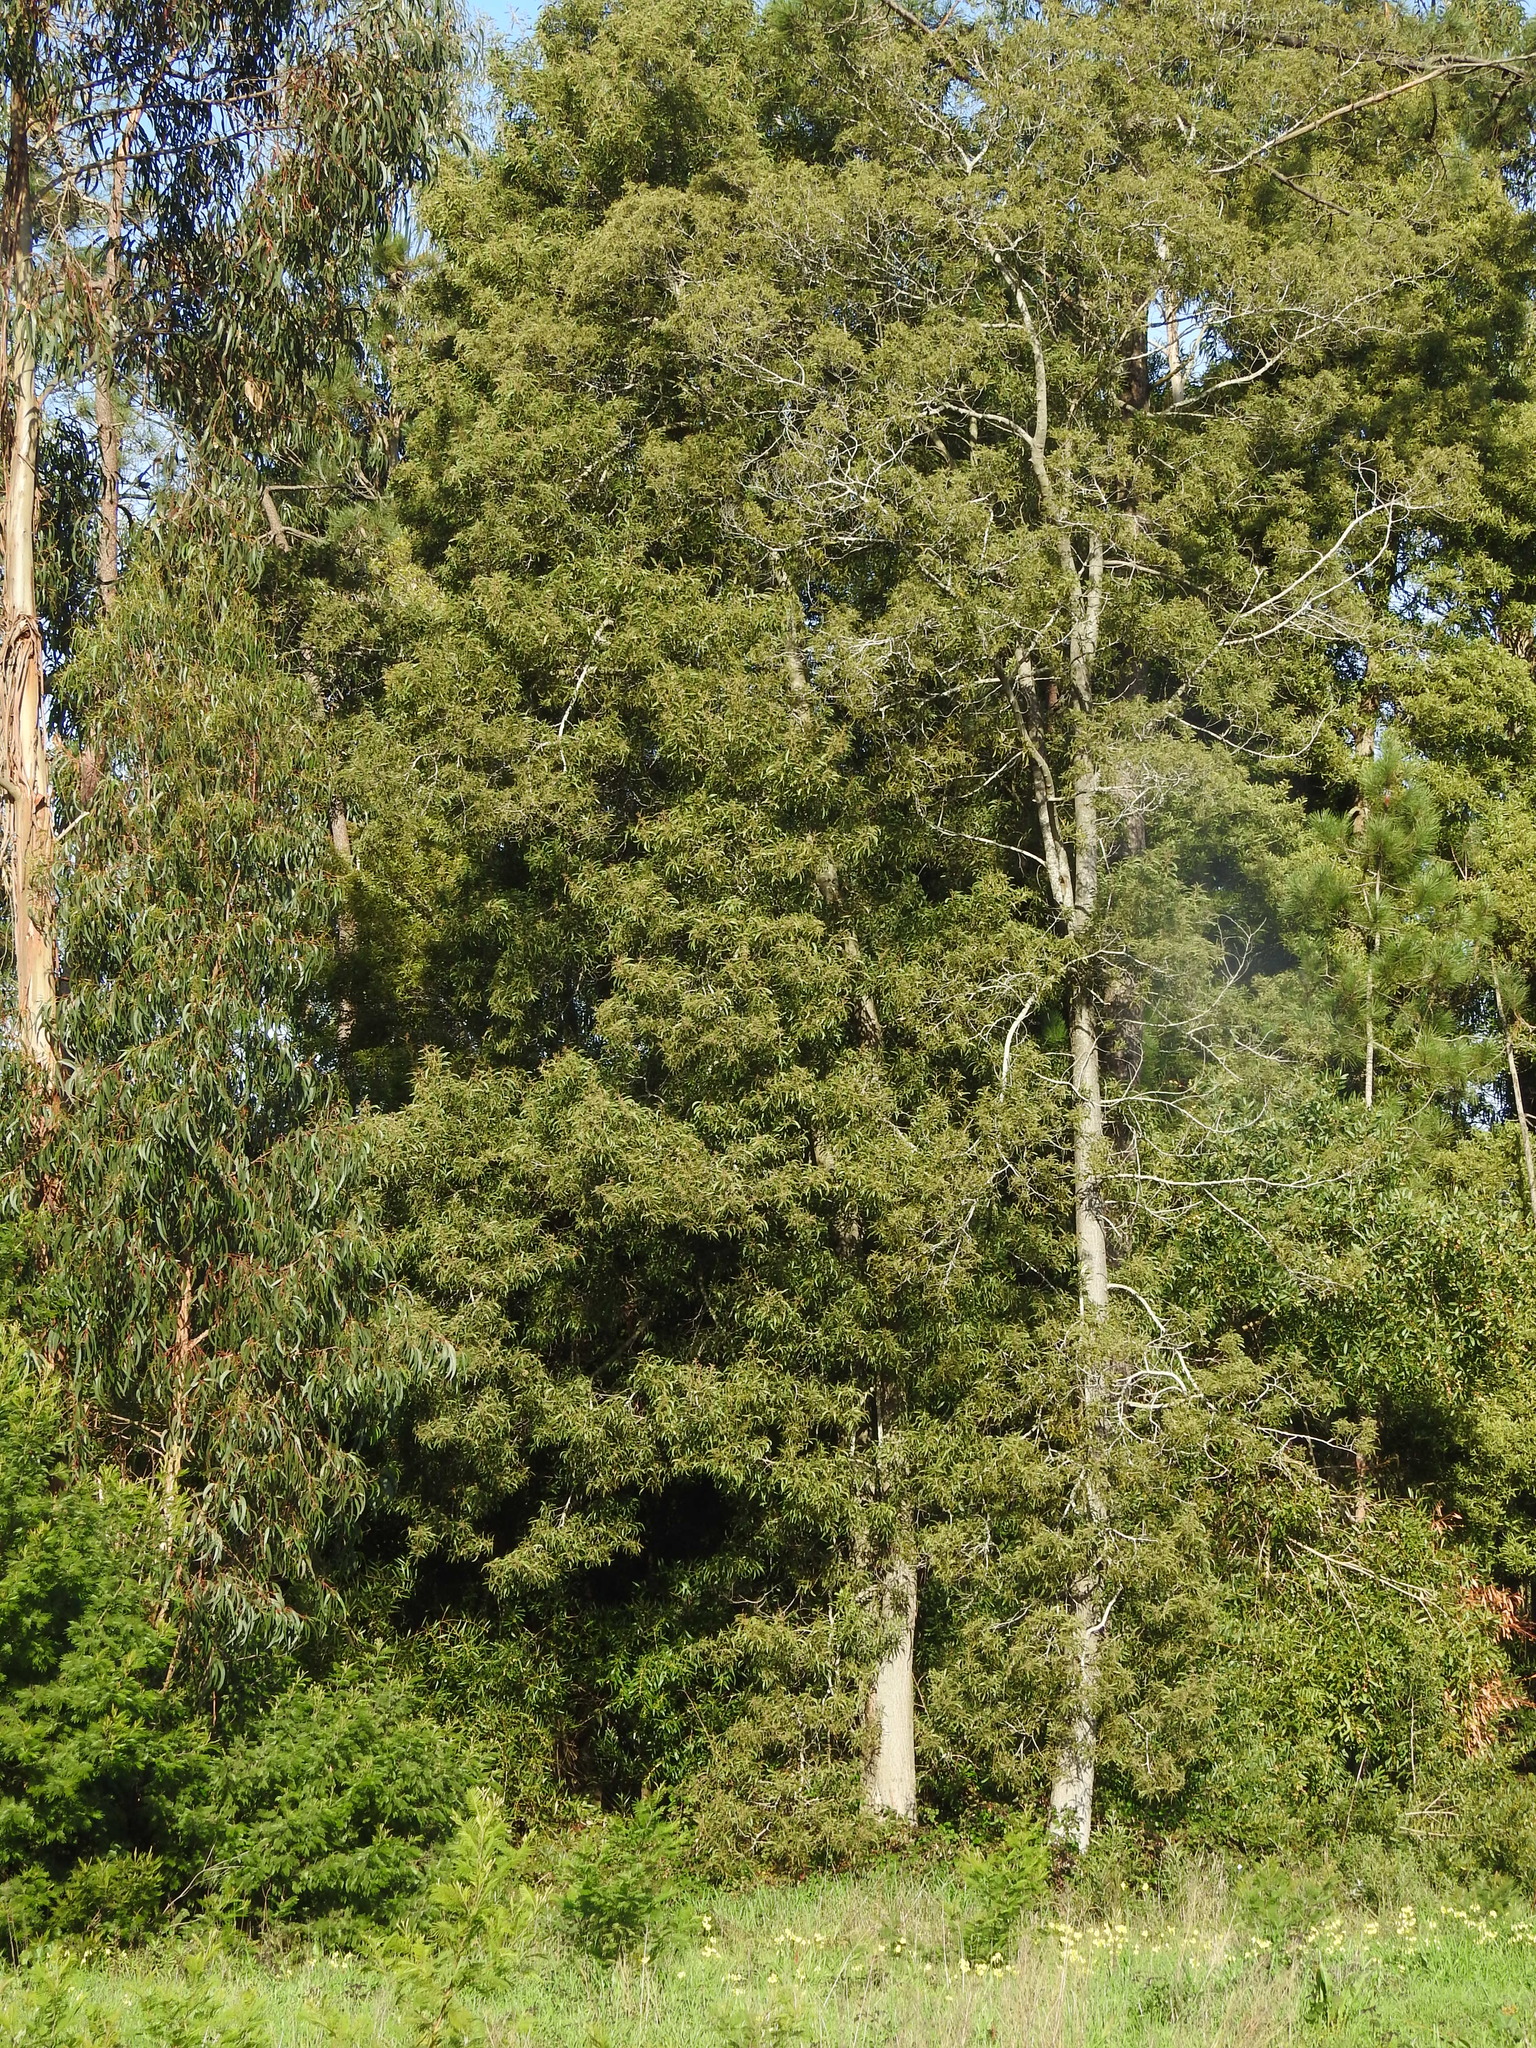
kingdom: Plantae
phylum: Tracheophyta
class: Magnoliopsida
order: Fabales
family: Fabaceae
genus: Acacia
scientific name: Acacia melanoxylon
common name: Blackwood
